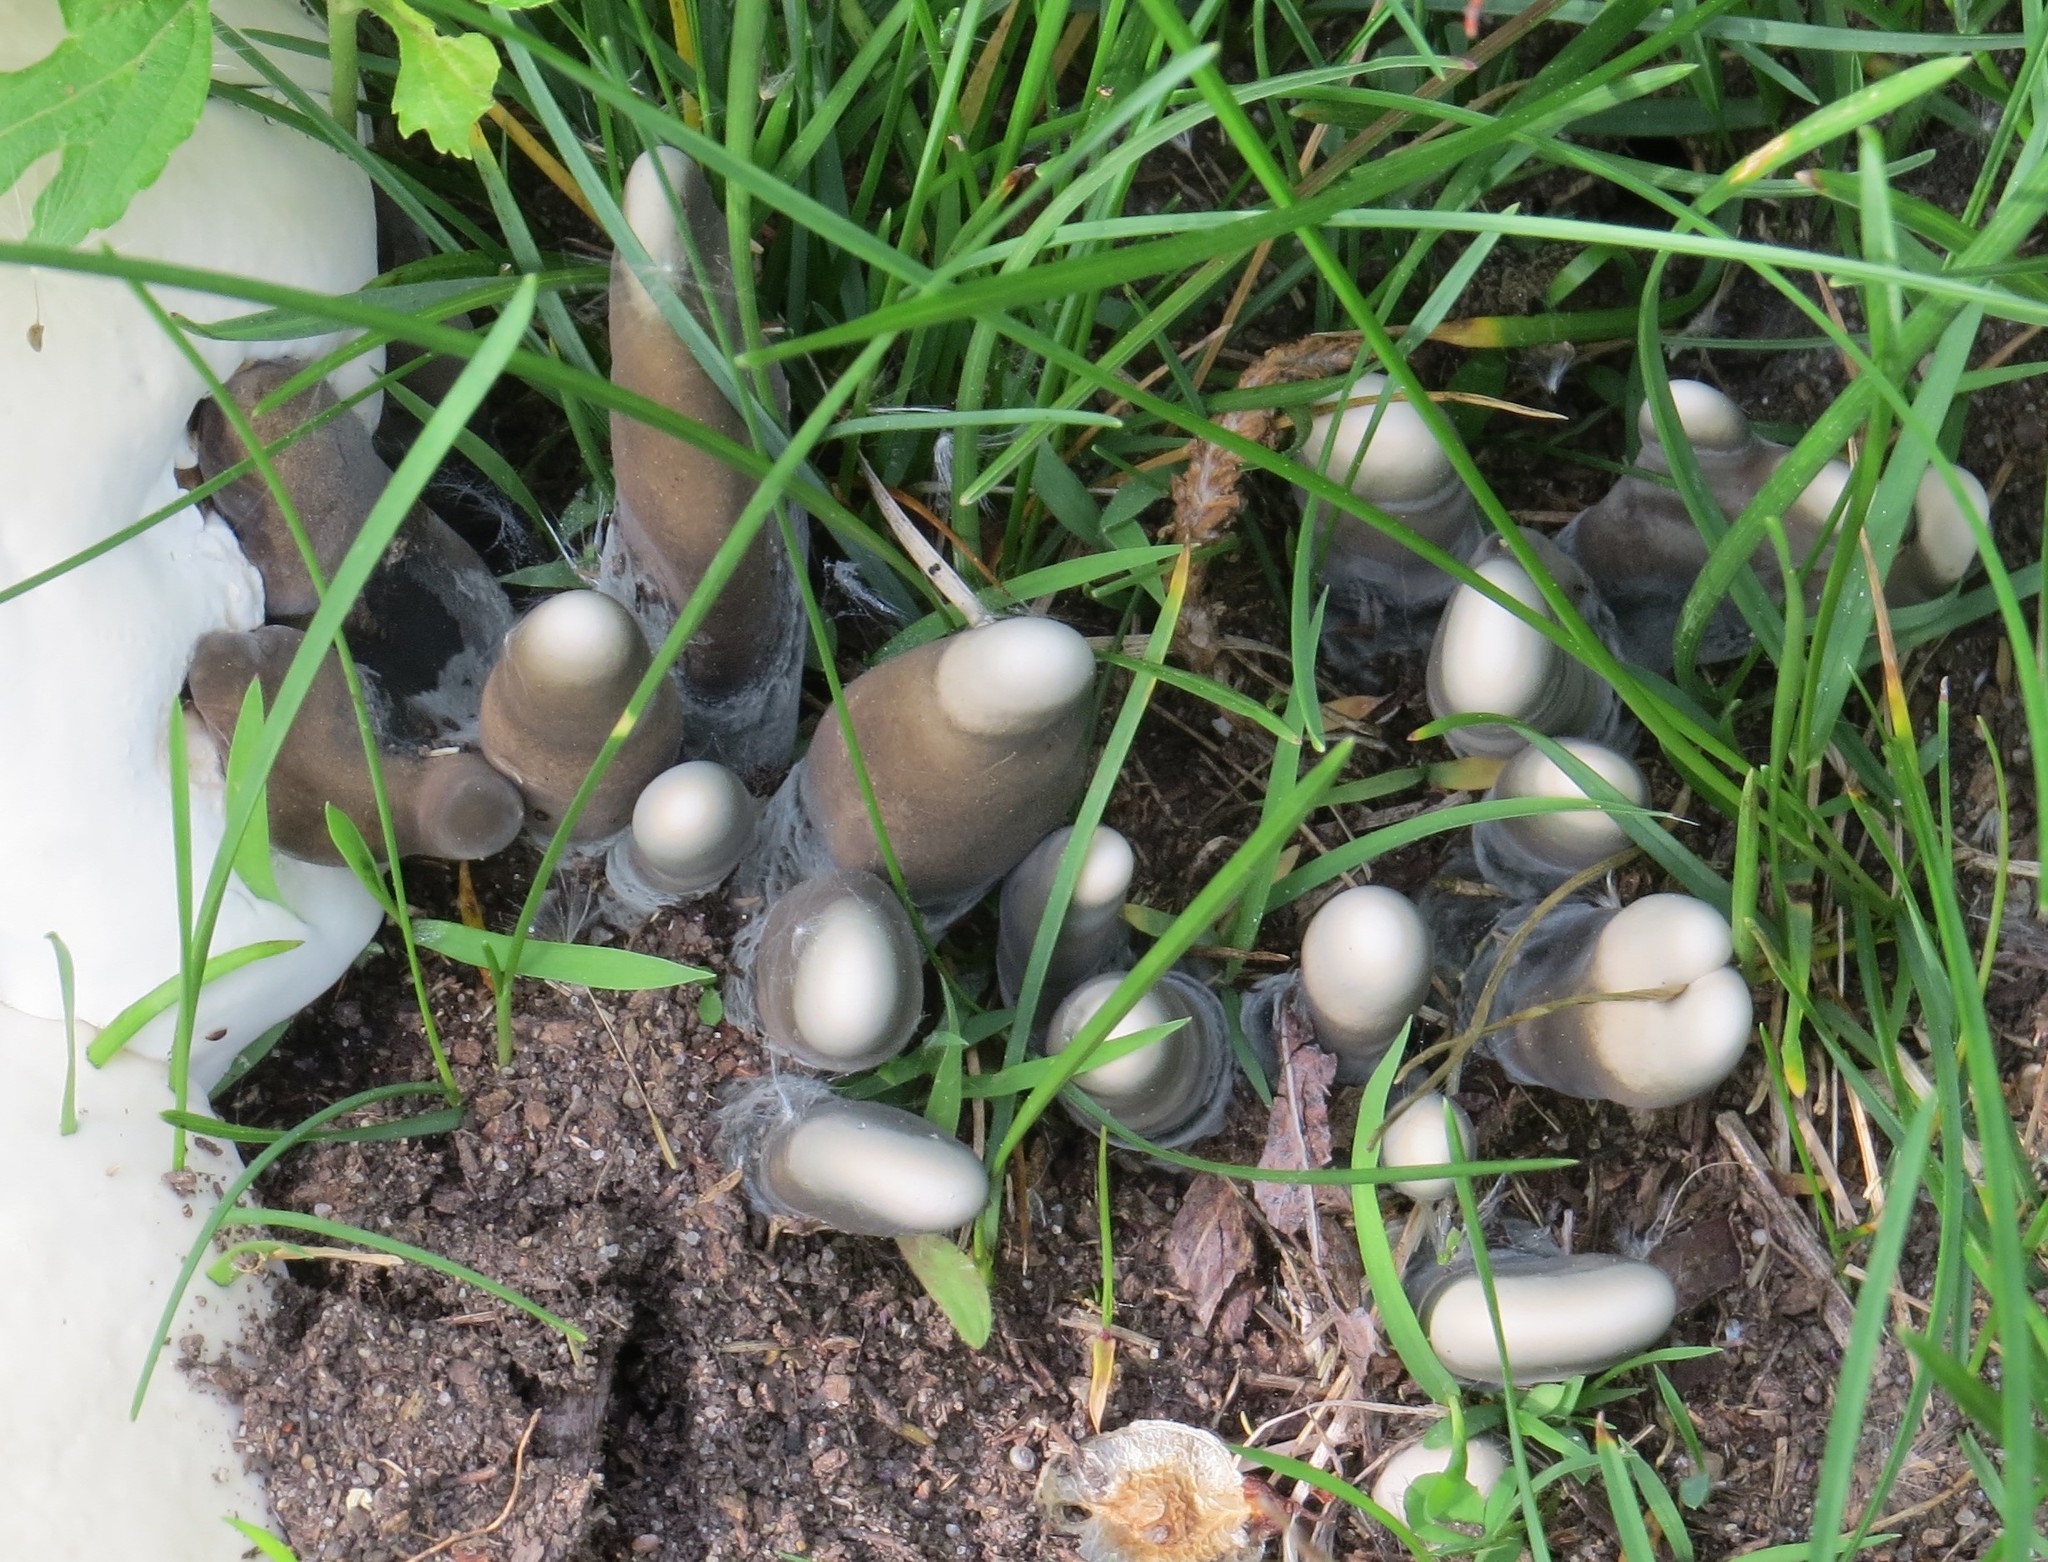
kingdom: Fungi
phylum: Ascomycota
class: Sordariomycetes
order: Xylariales
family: Xylariaceae
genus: Xylaria
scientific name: Xylaria polymorpha
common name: Dead man's fingers
